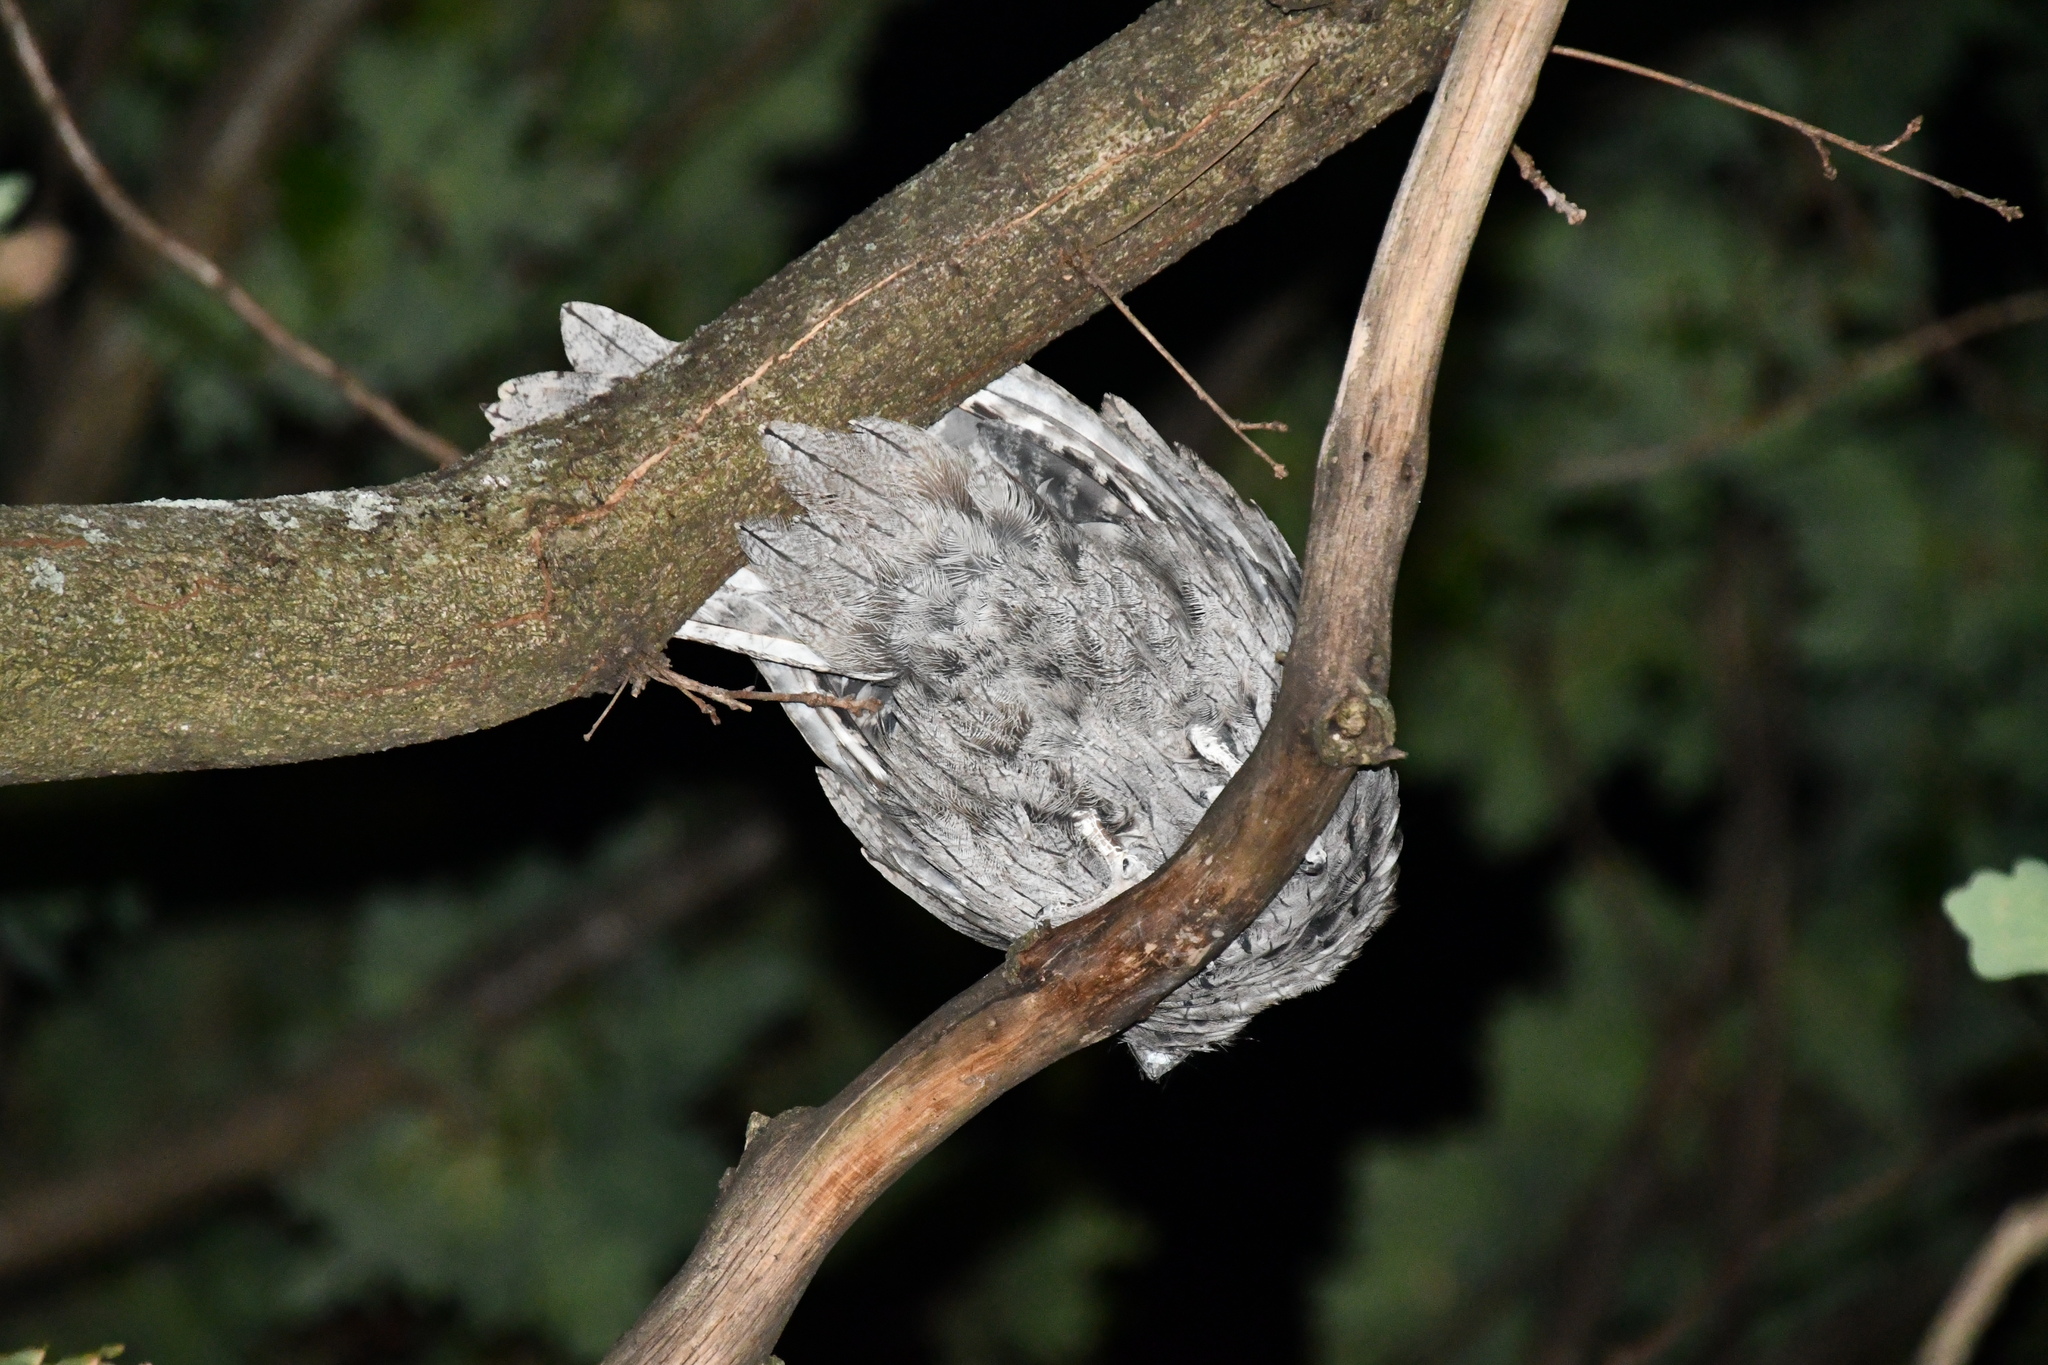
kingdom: Animalia
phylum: Chordata
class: Aves
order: Caprimulgiformes
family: Podargidae
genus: Podargus
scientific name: Podargus strigoides
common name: Tawny frogmouth
